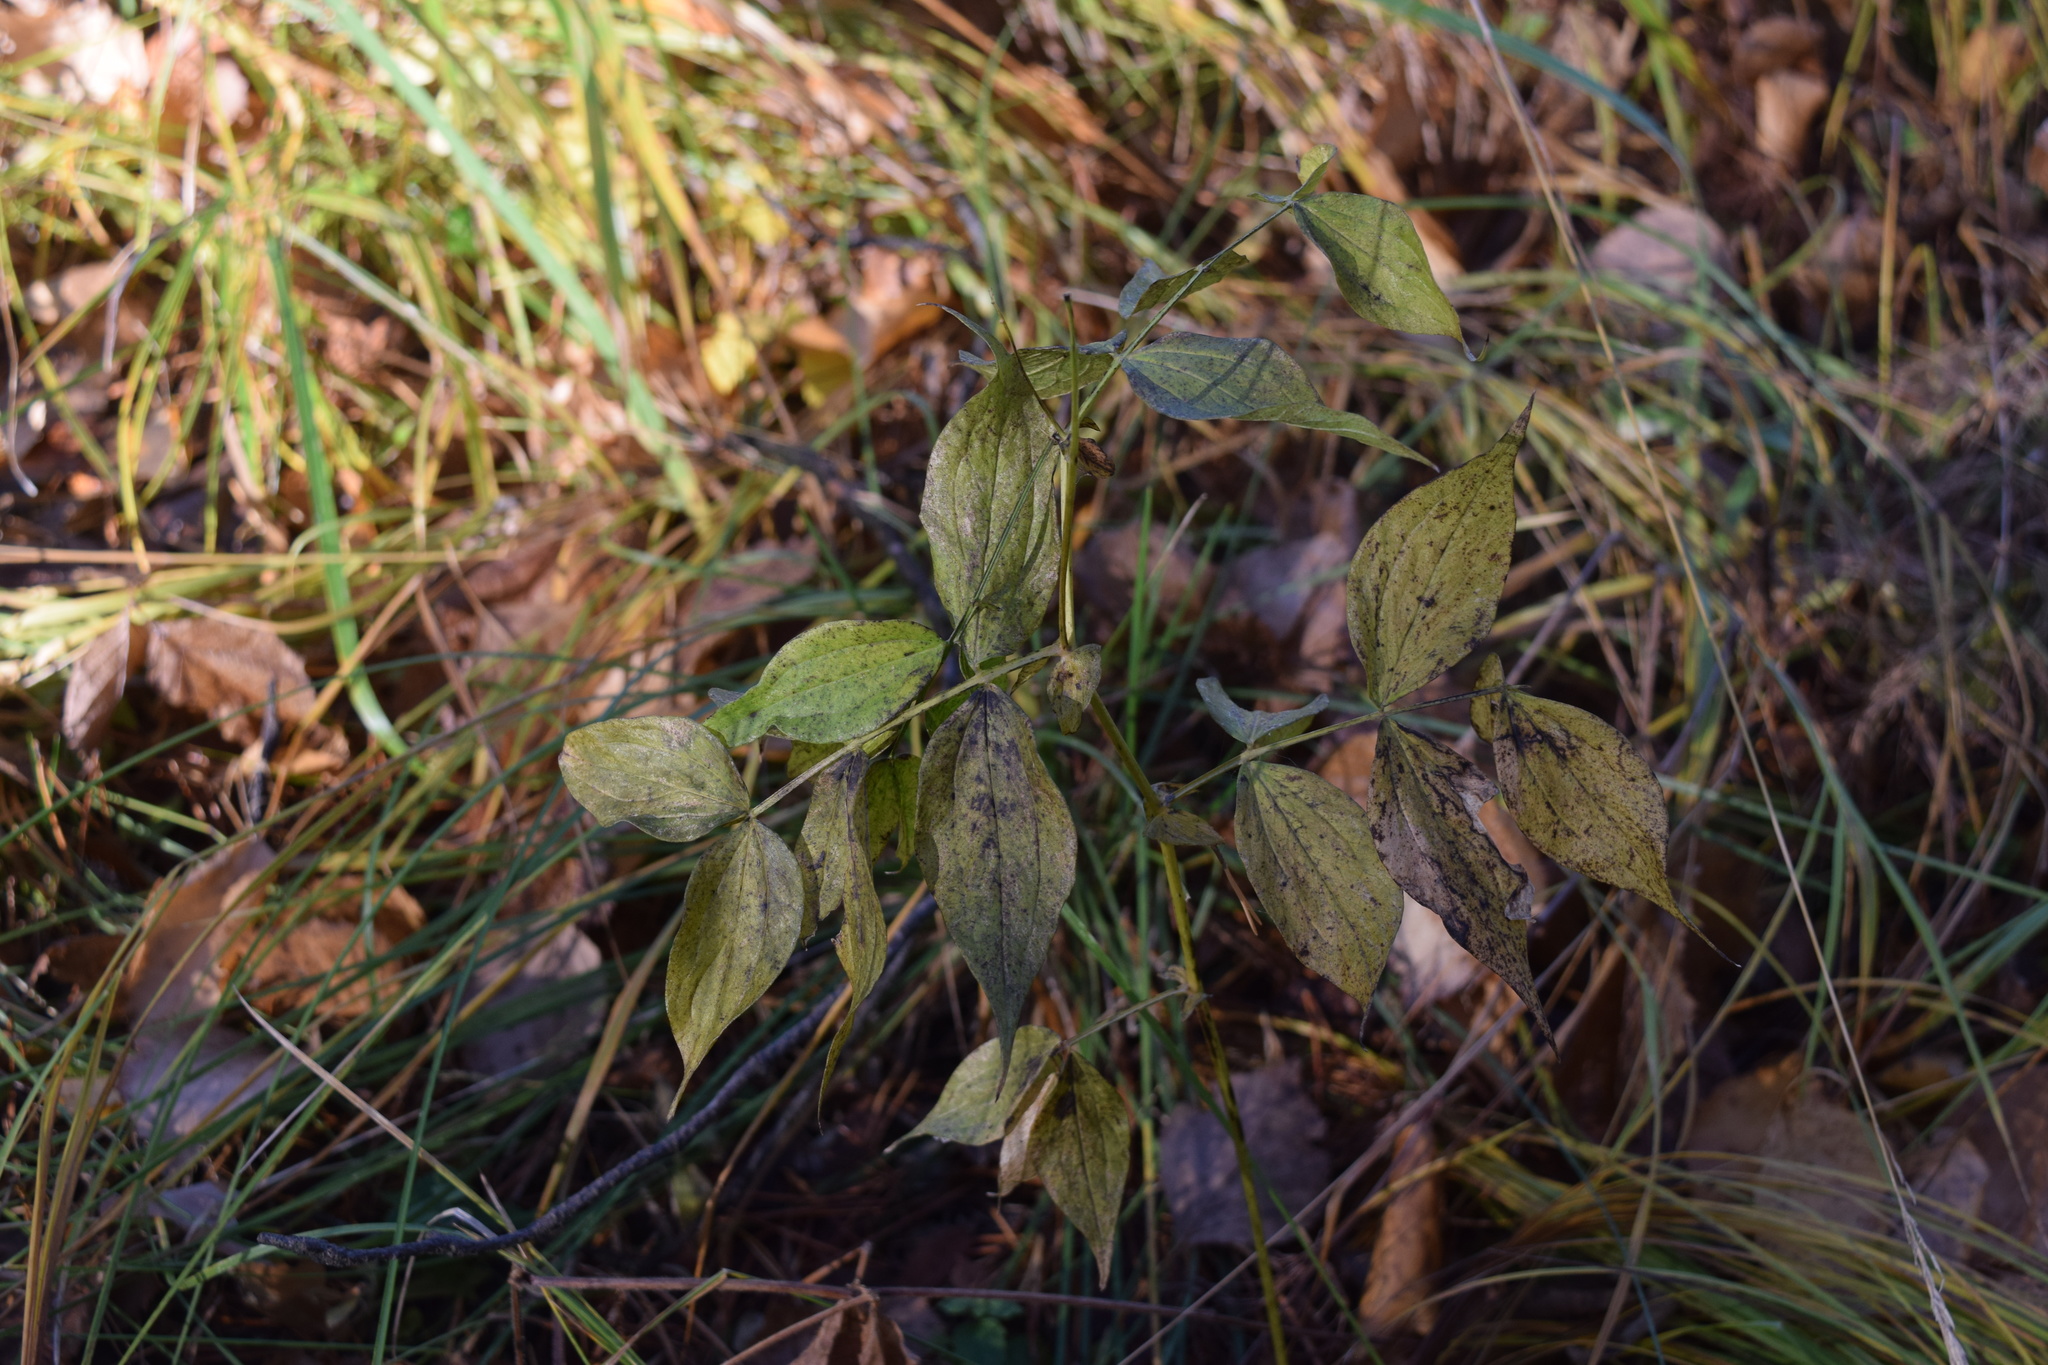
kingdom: Plantae
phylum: Tracheophyta
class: Magnoliopsida
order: Fabales
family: Fabaceae
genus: Lathyrus
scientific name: Lathyrus vernus
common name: Spring pea
